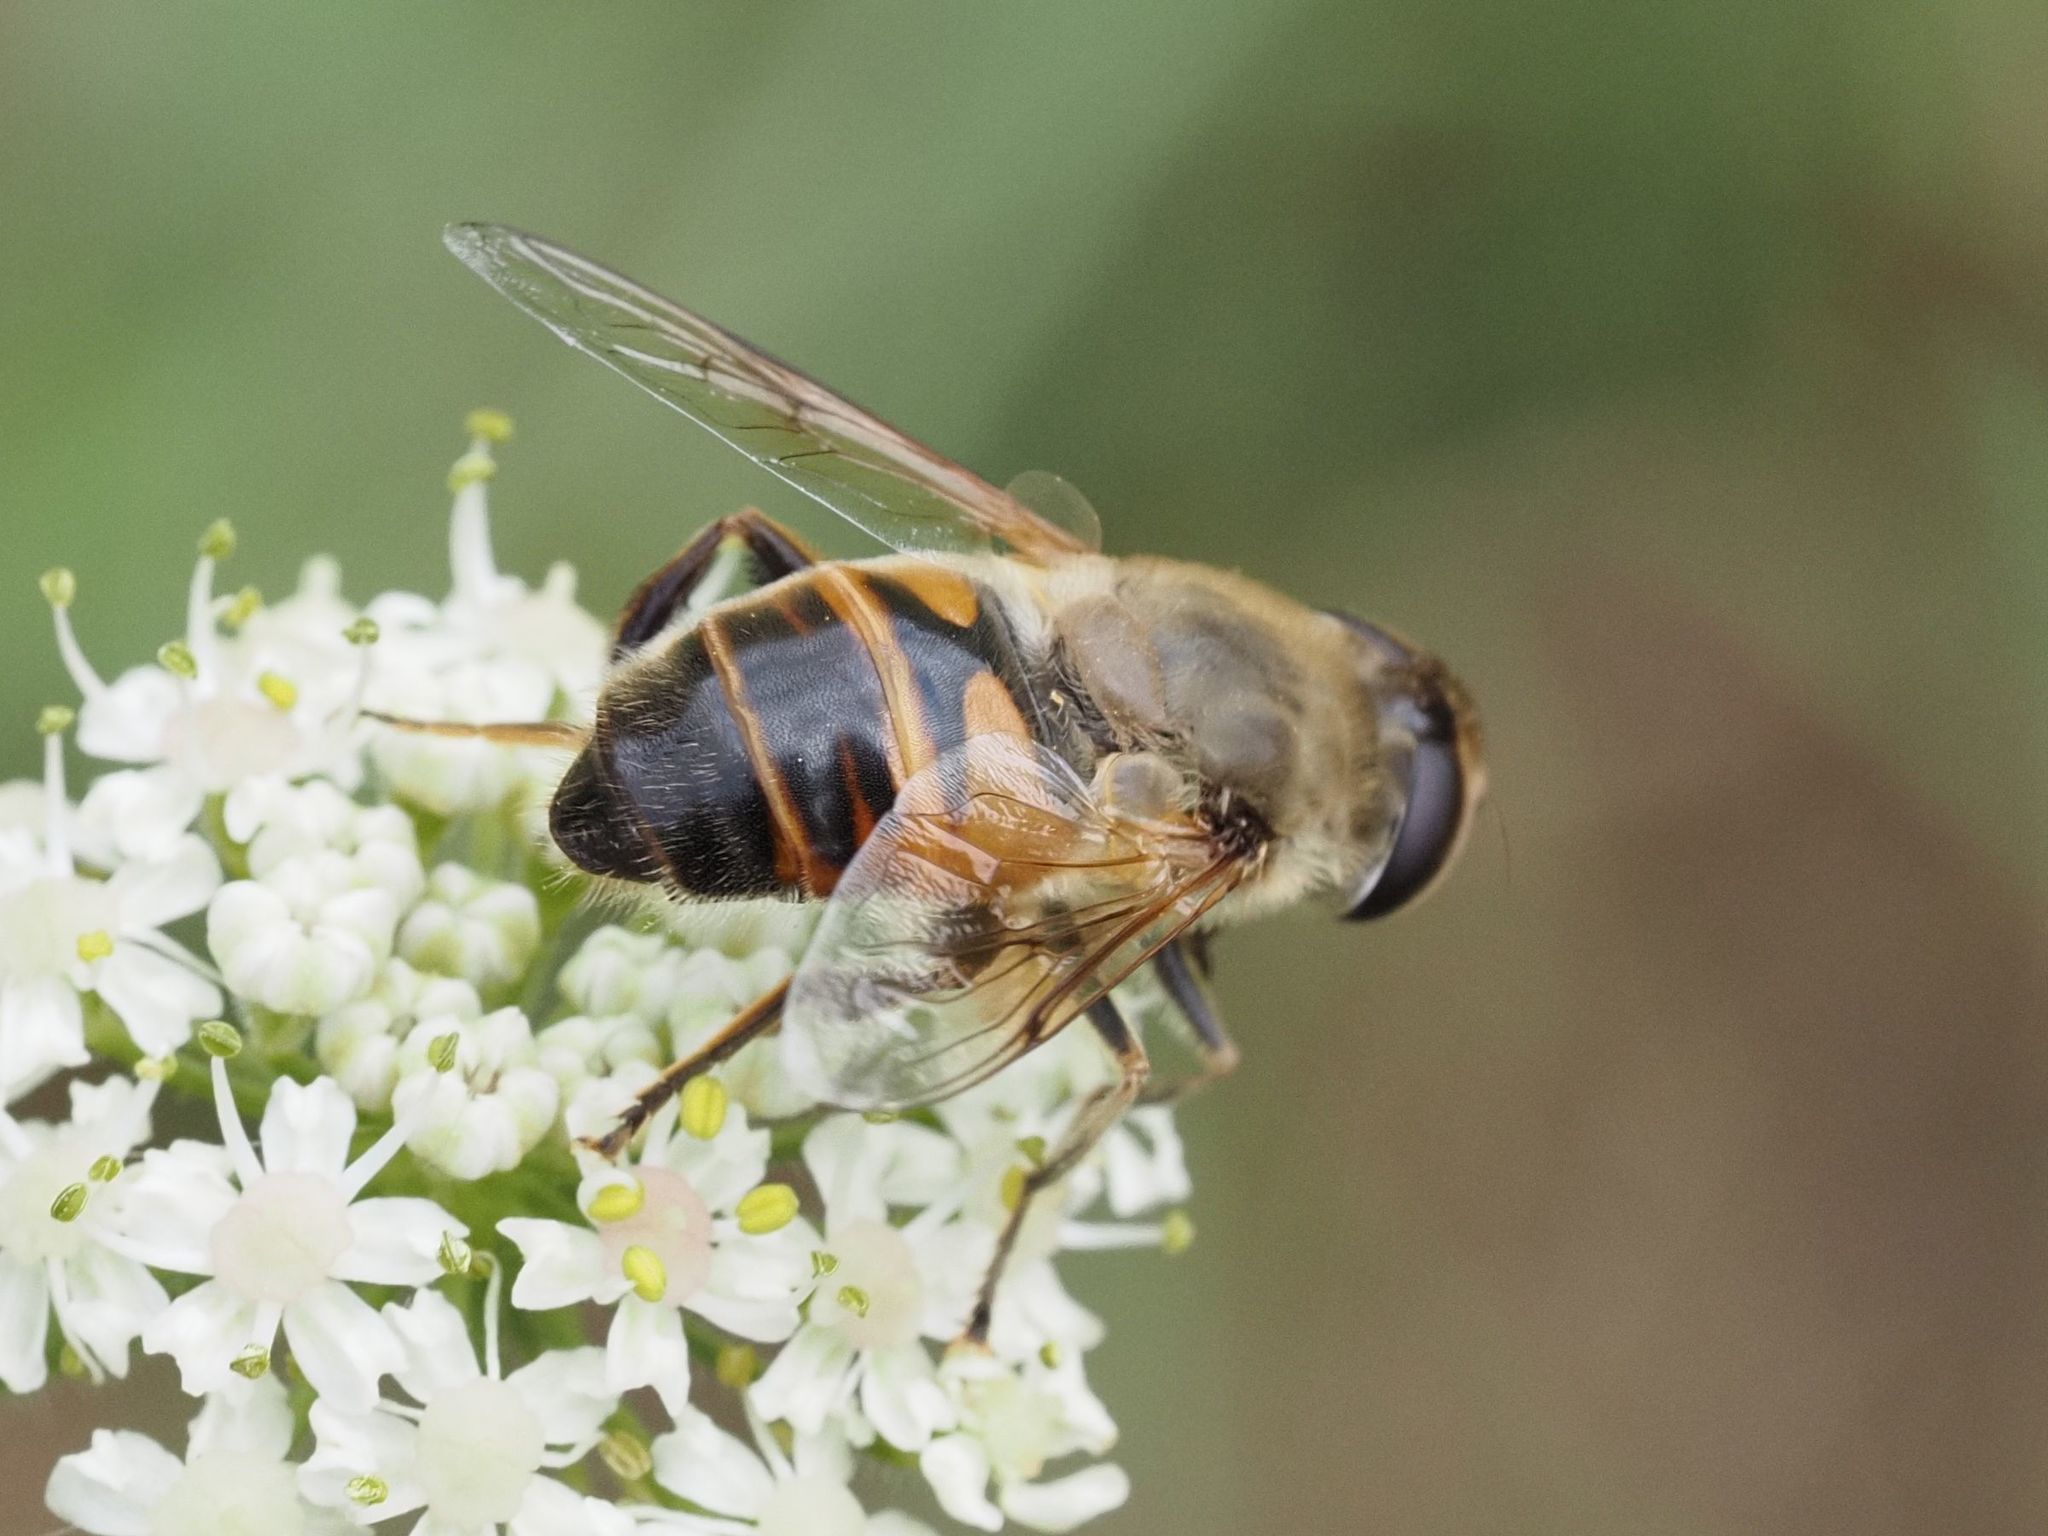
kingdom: Animalia
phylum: Arthropoda
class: Insecta
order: Diptera
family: Syrphidae
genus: Eristalis
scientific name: Eristalis tenax
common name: Drone fly
